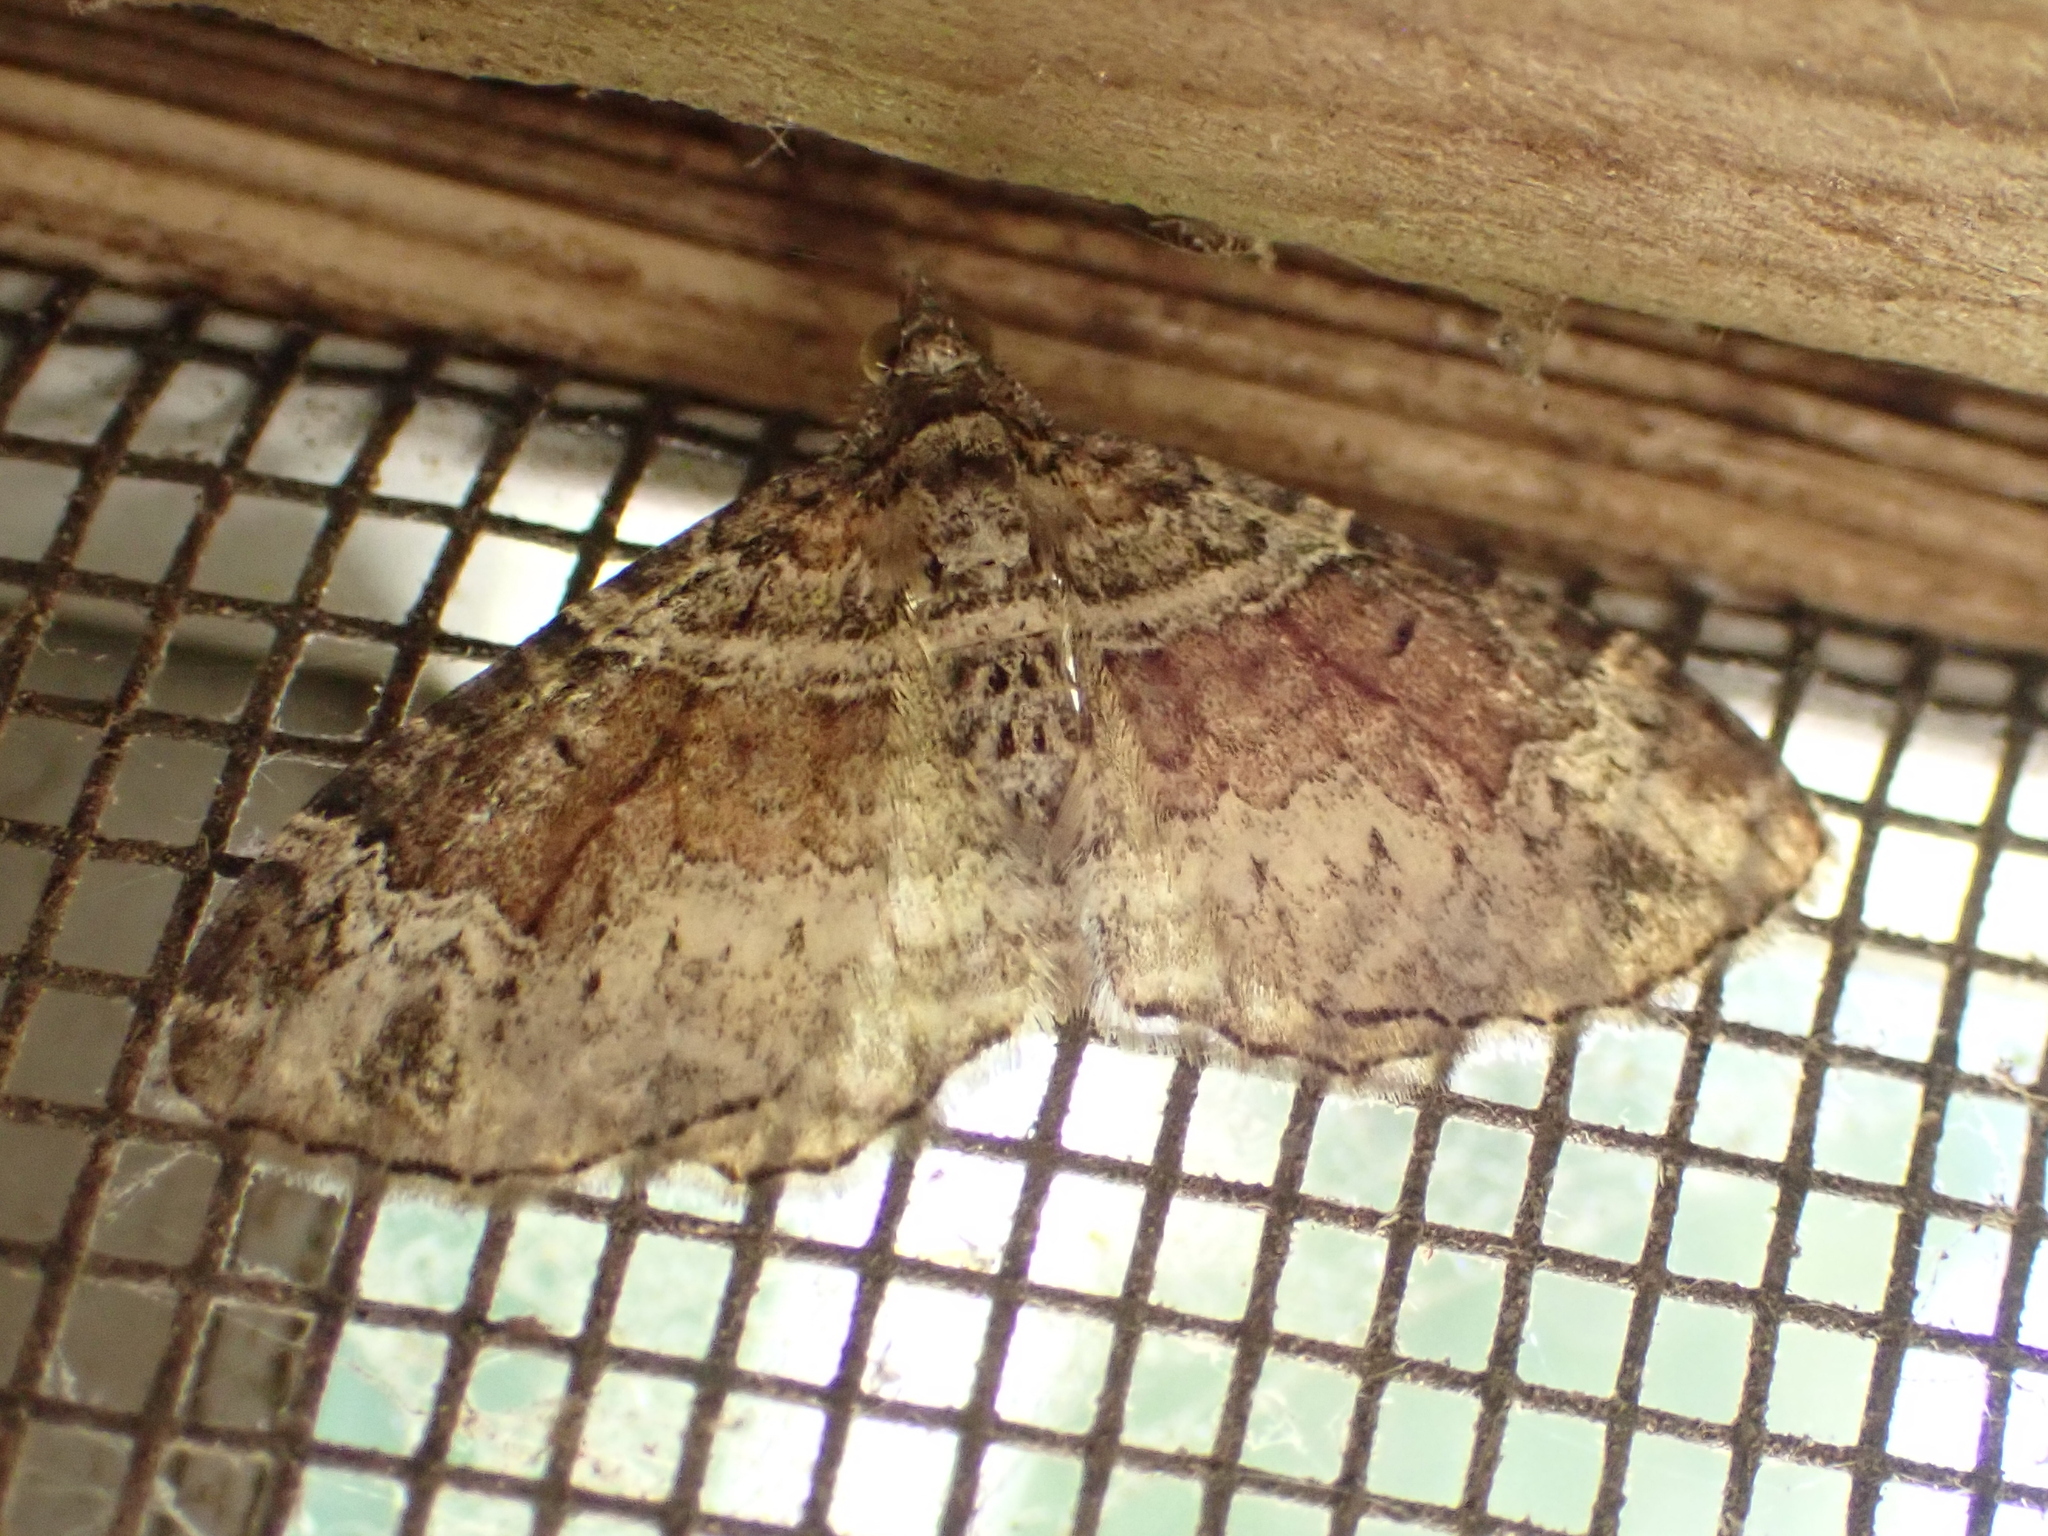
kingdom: Animalia
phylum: Arthropoda
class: Insecta
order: Lepidoptera
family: Geometridae
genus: Xanthorhoe
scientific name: Xanthorhoe ferrugata
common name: Dark-barred twin-spot carpet
